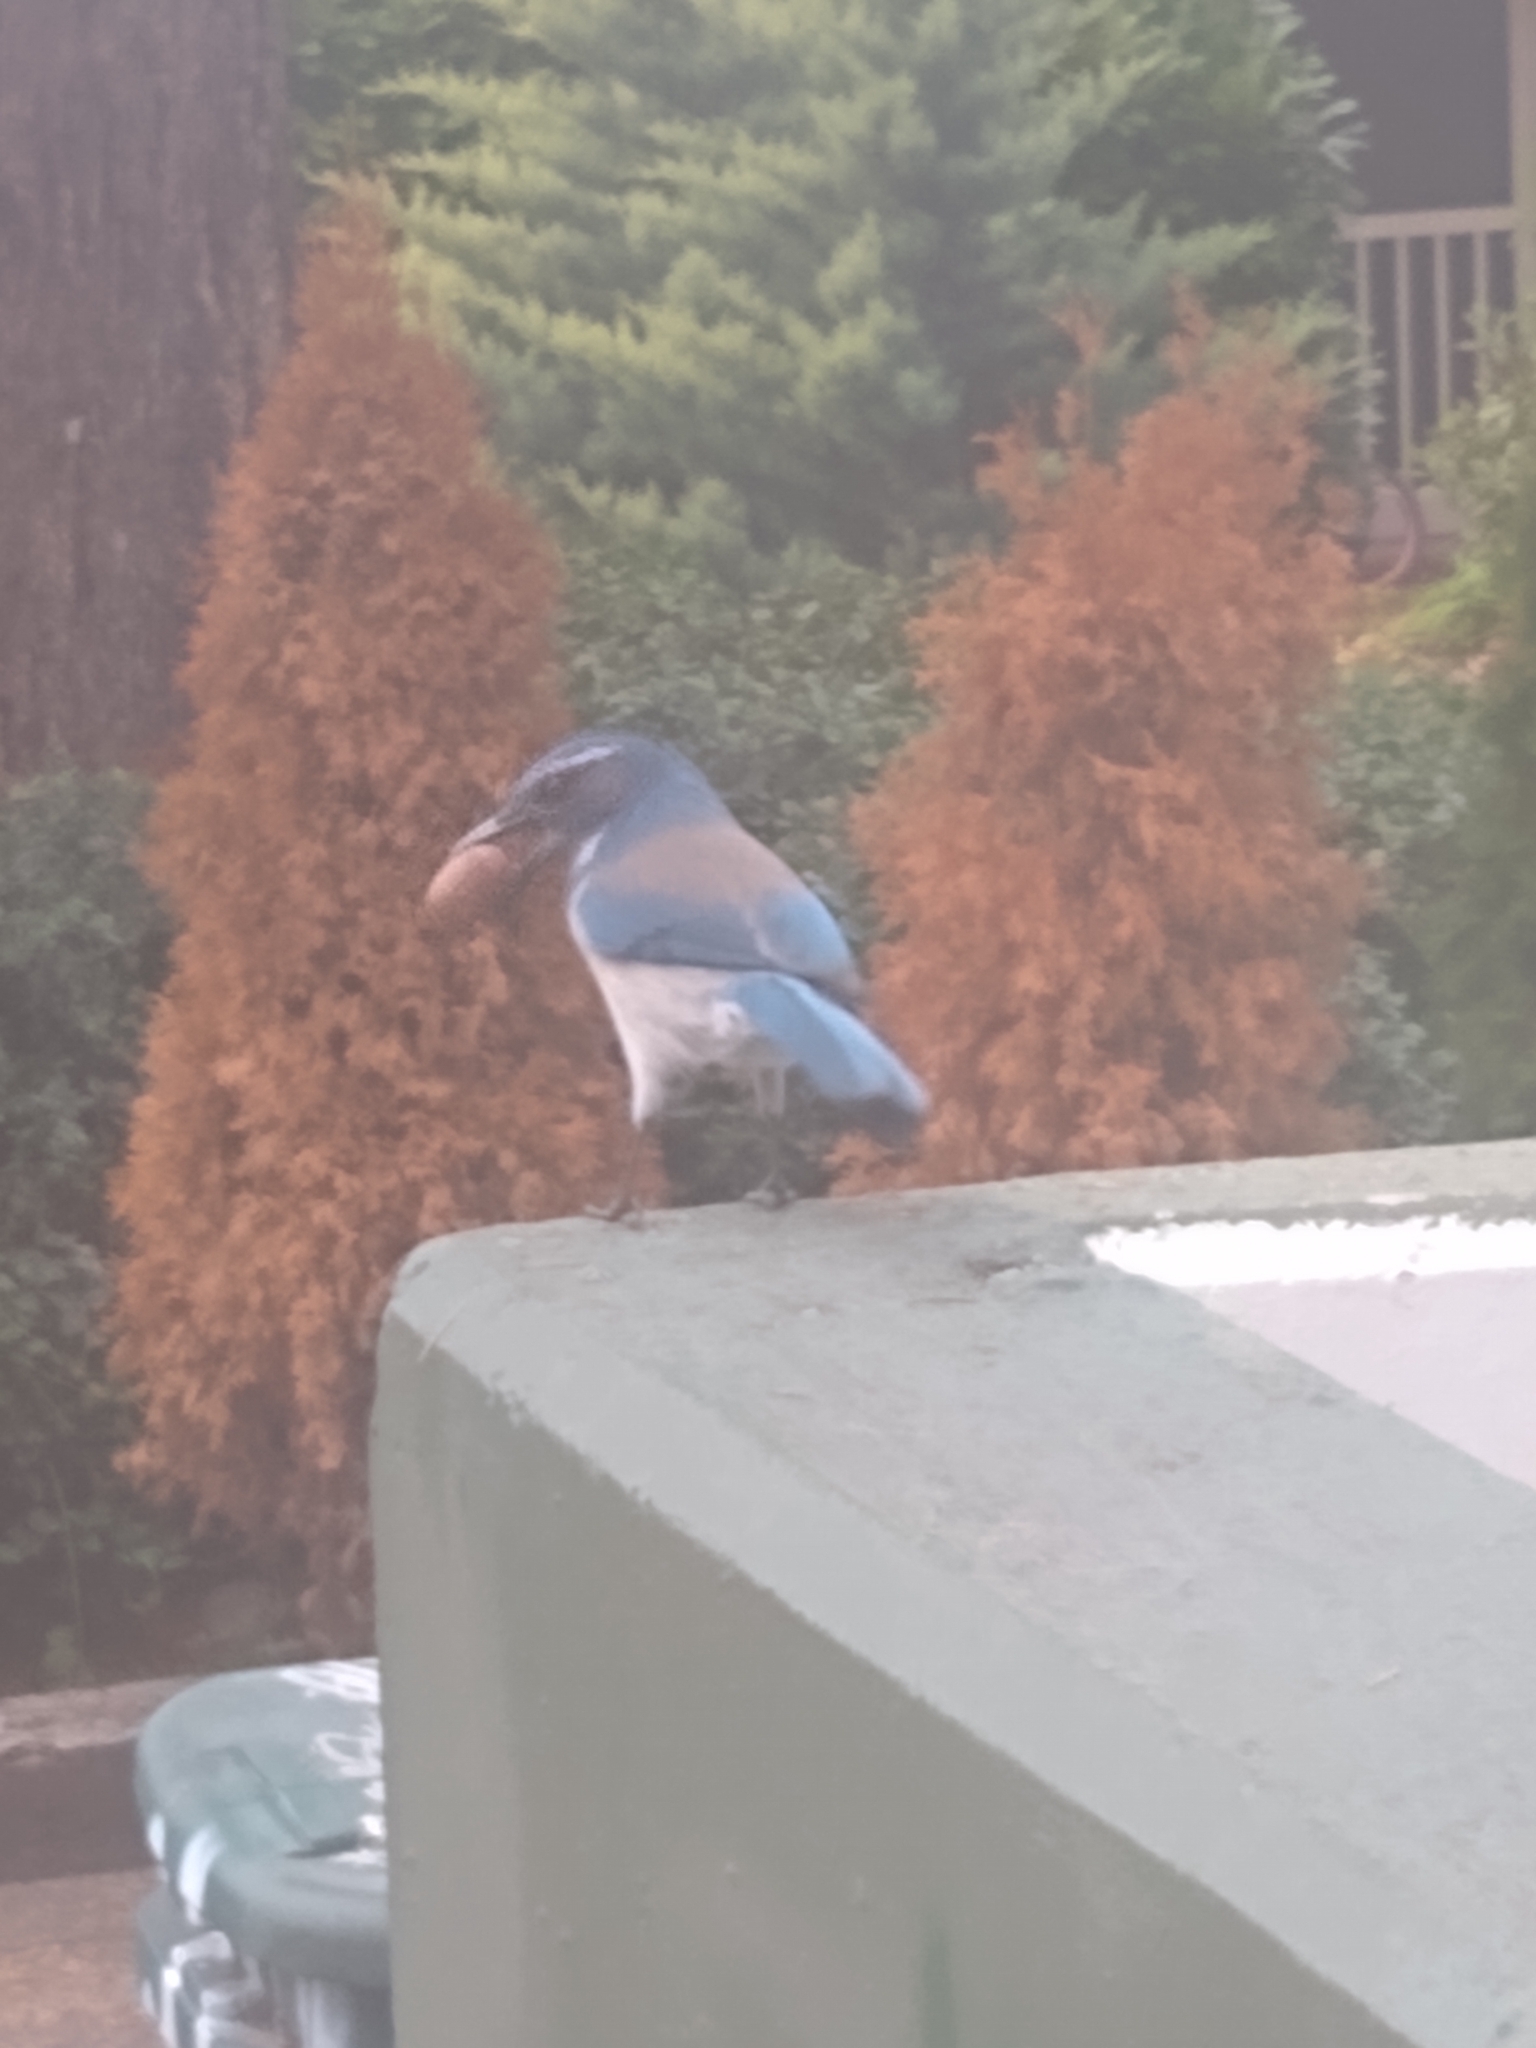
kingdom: Animalia
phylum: Chordata
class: Aves
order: Passeriformes
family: Corvidae
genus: Aphelocoma
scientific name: Aphelocoma californica
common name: California scrub-jay
